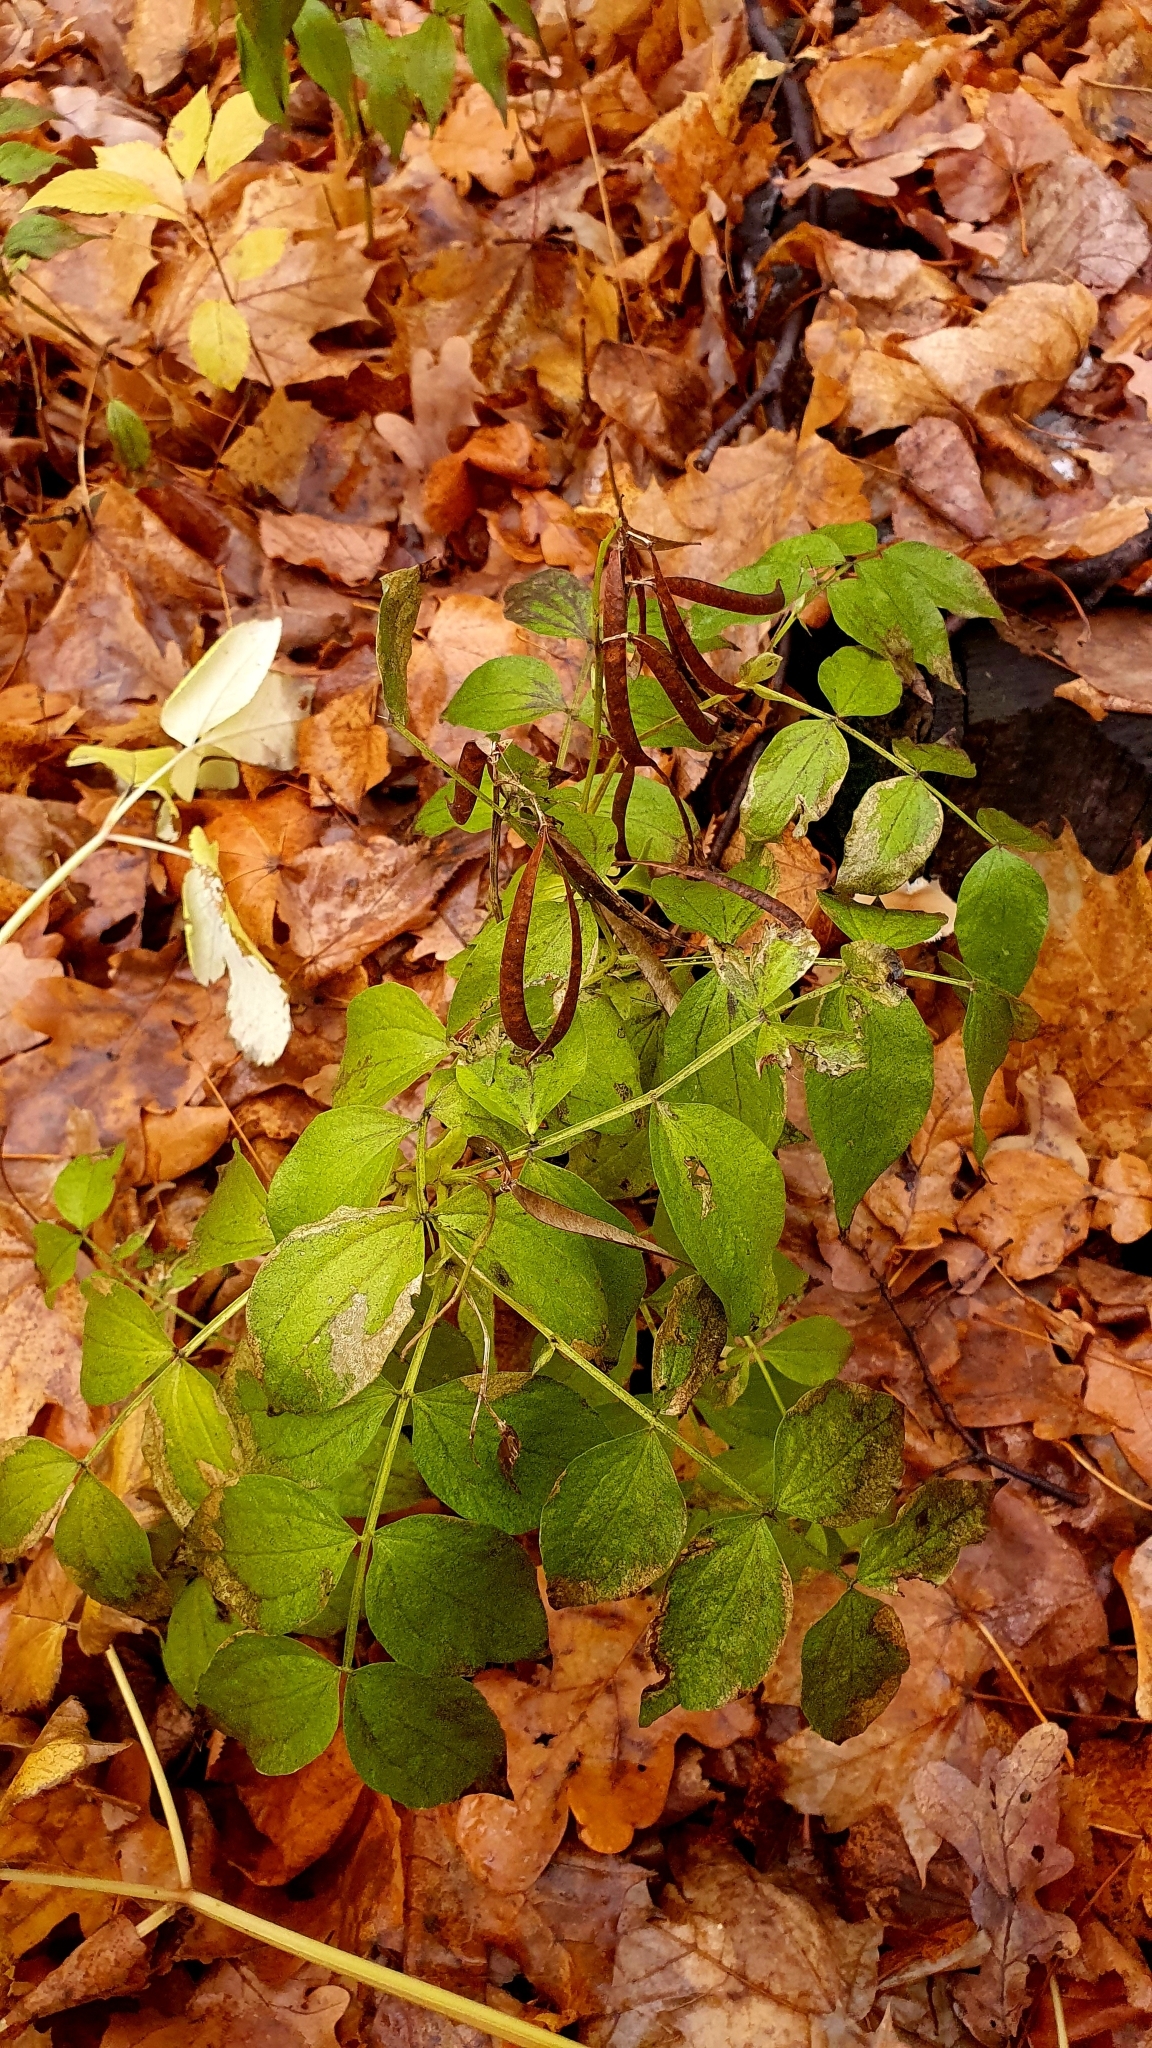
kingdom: Plantae
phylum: Tracheophyta
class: Magnoliopsida
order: Fabales
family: Fabaceae
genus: Lathyrus
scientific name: Lathyrus vernus
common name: Spring pea
